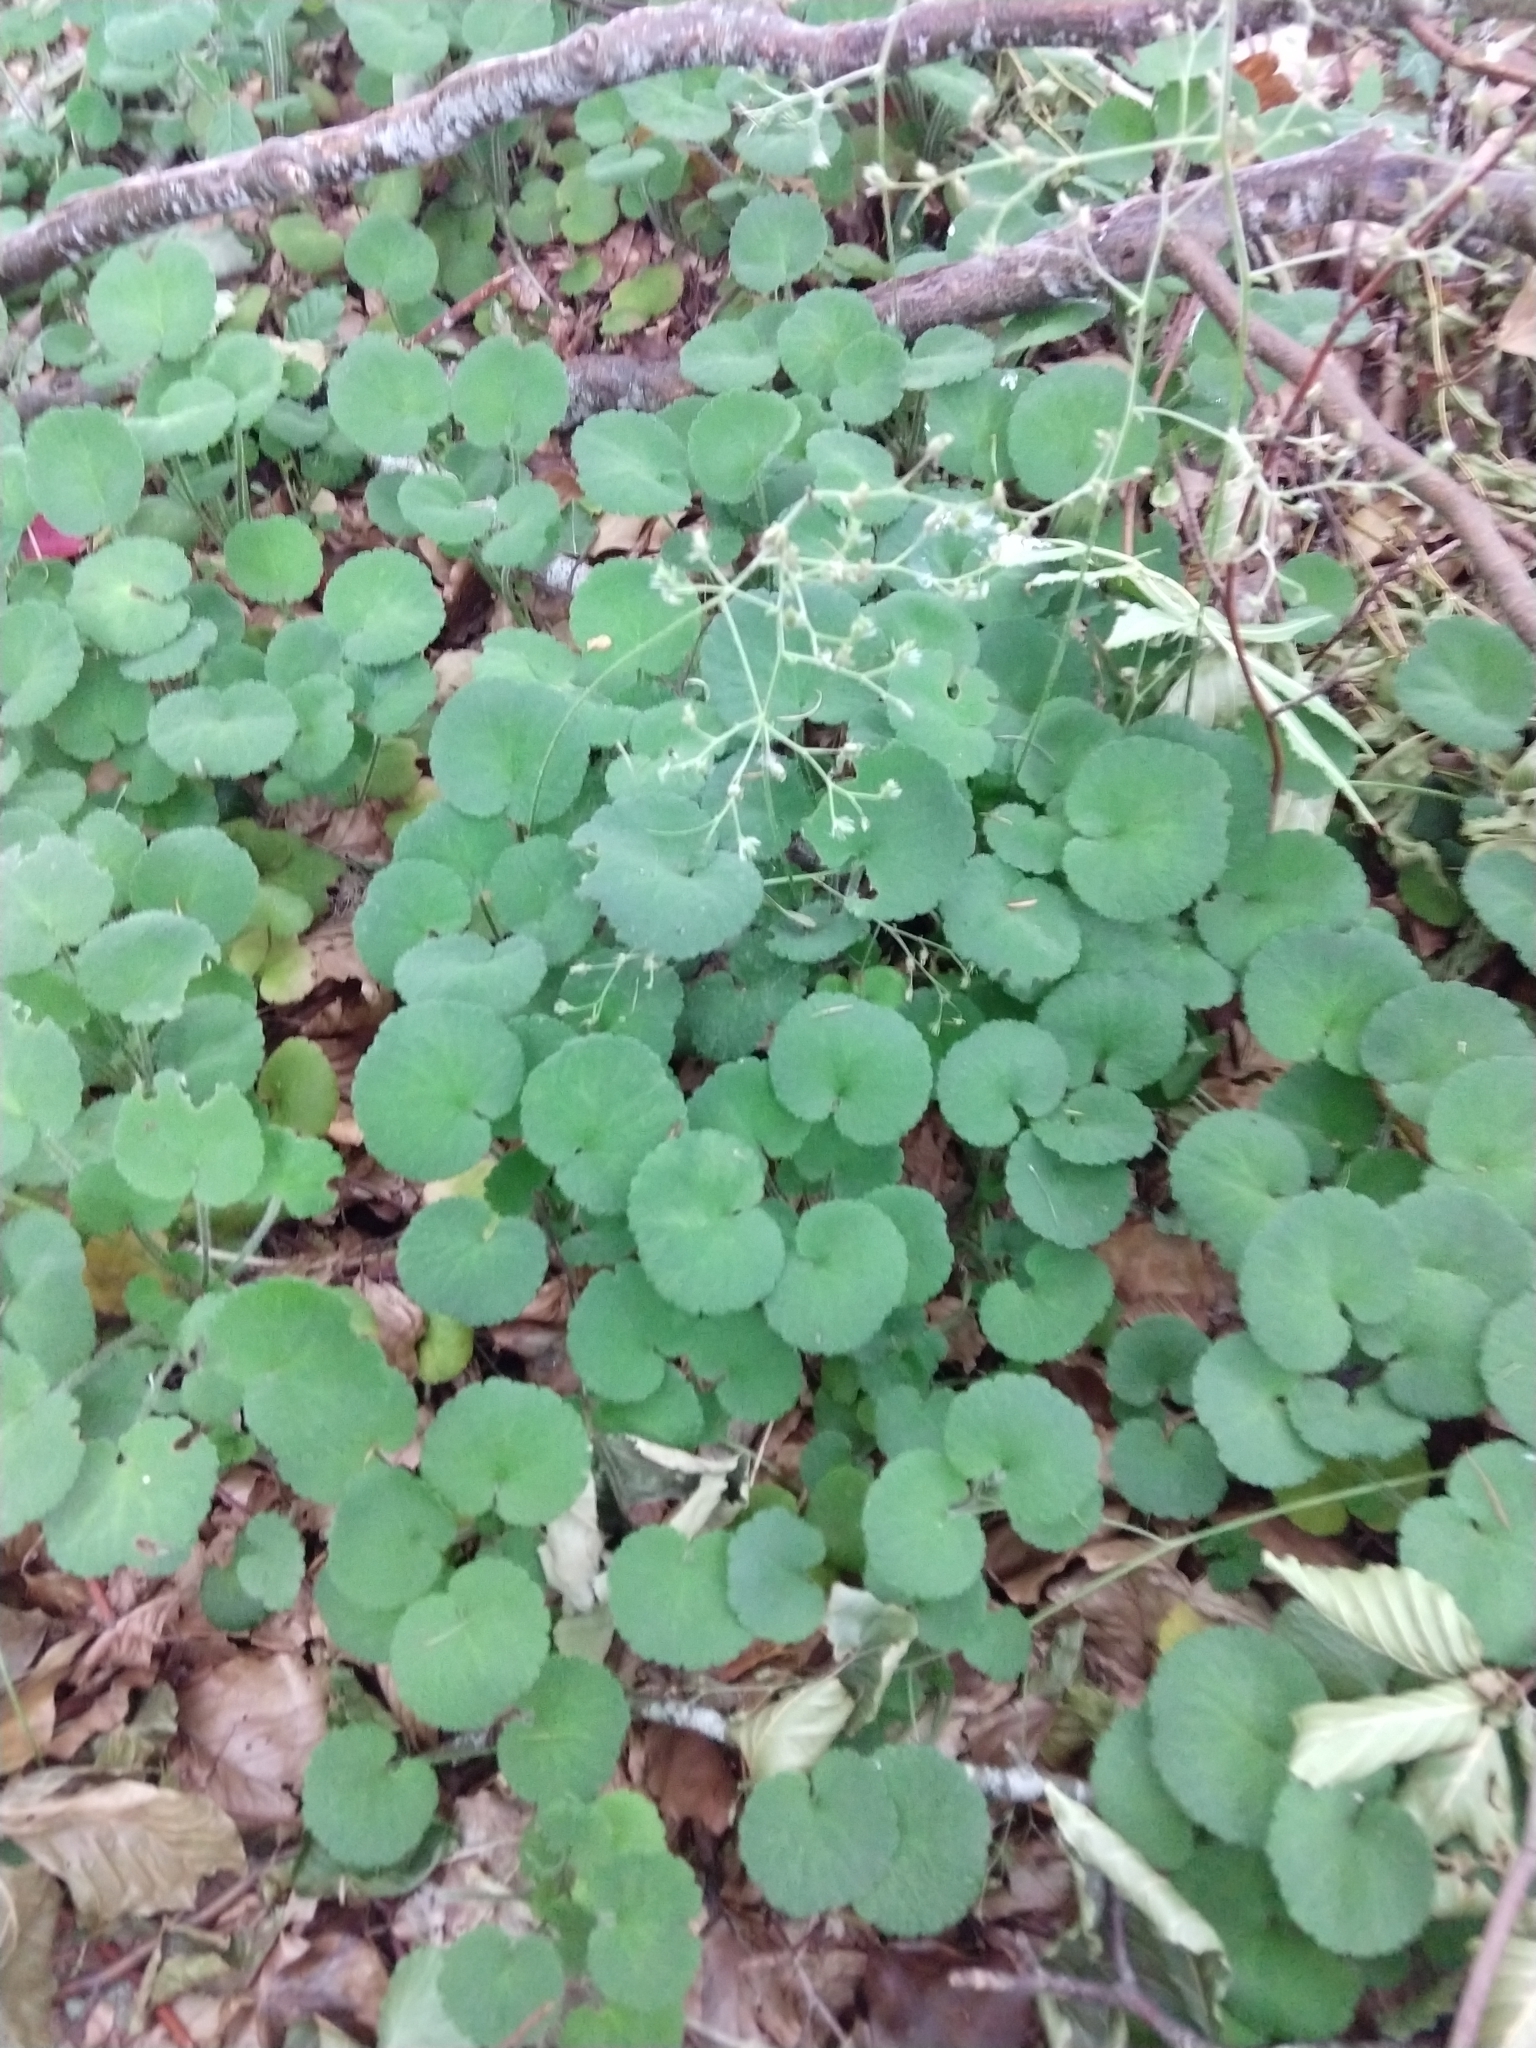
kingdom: Plantae
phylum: Tracheophyta
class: Magnoliopsida
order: Saxifragales
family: Saxifragaceae
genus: Saxifraga
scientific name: Saxifraga hirsuta
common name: Kidney saxifrage
